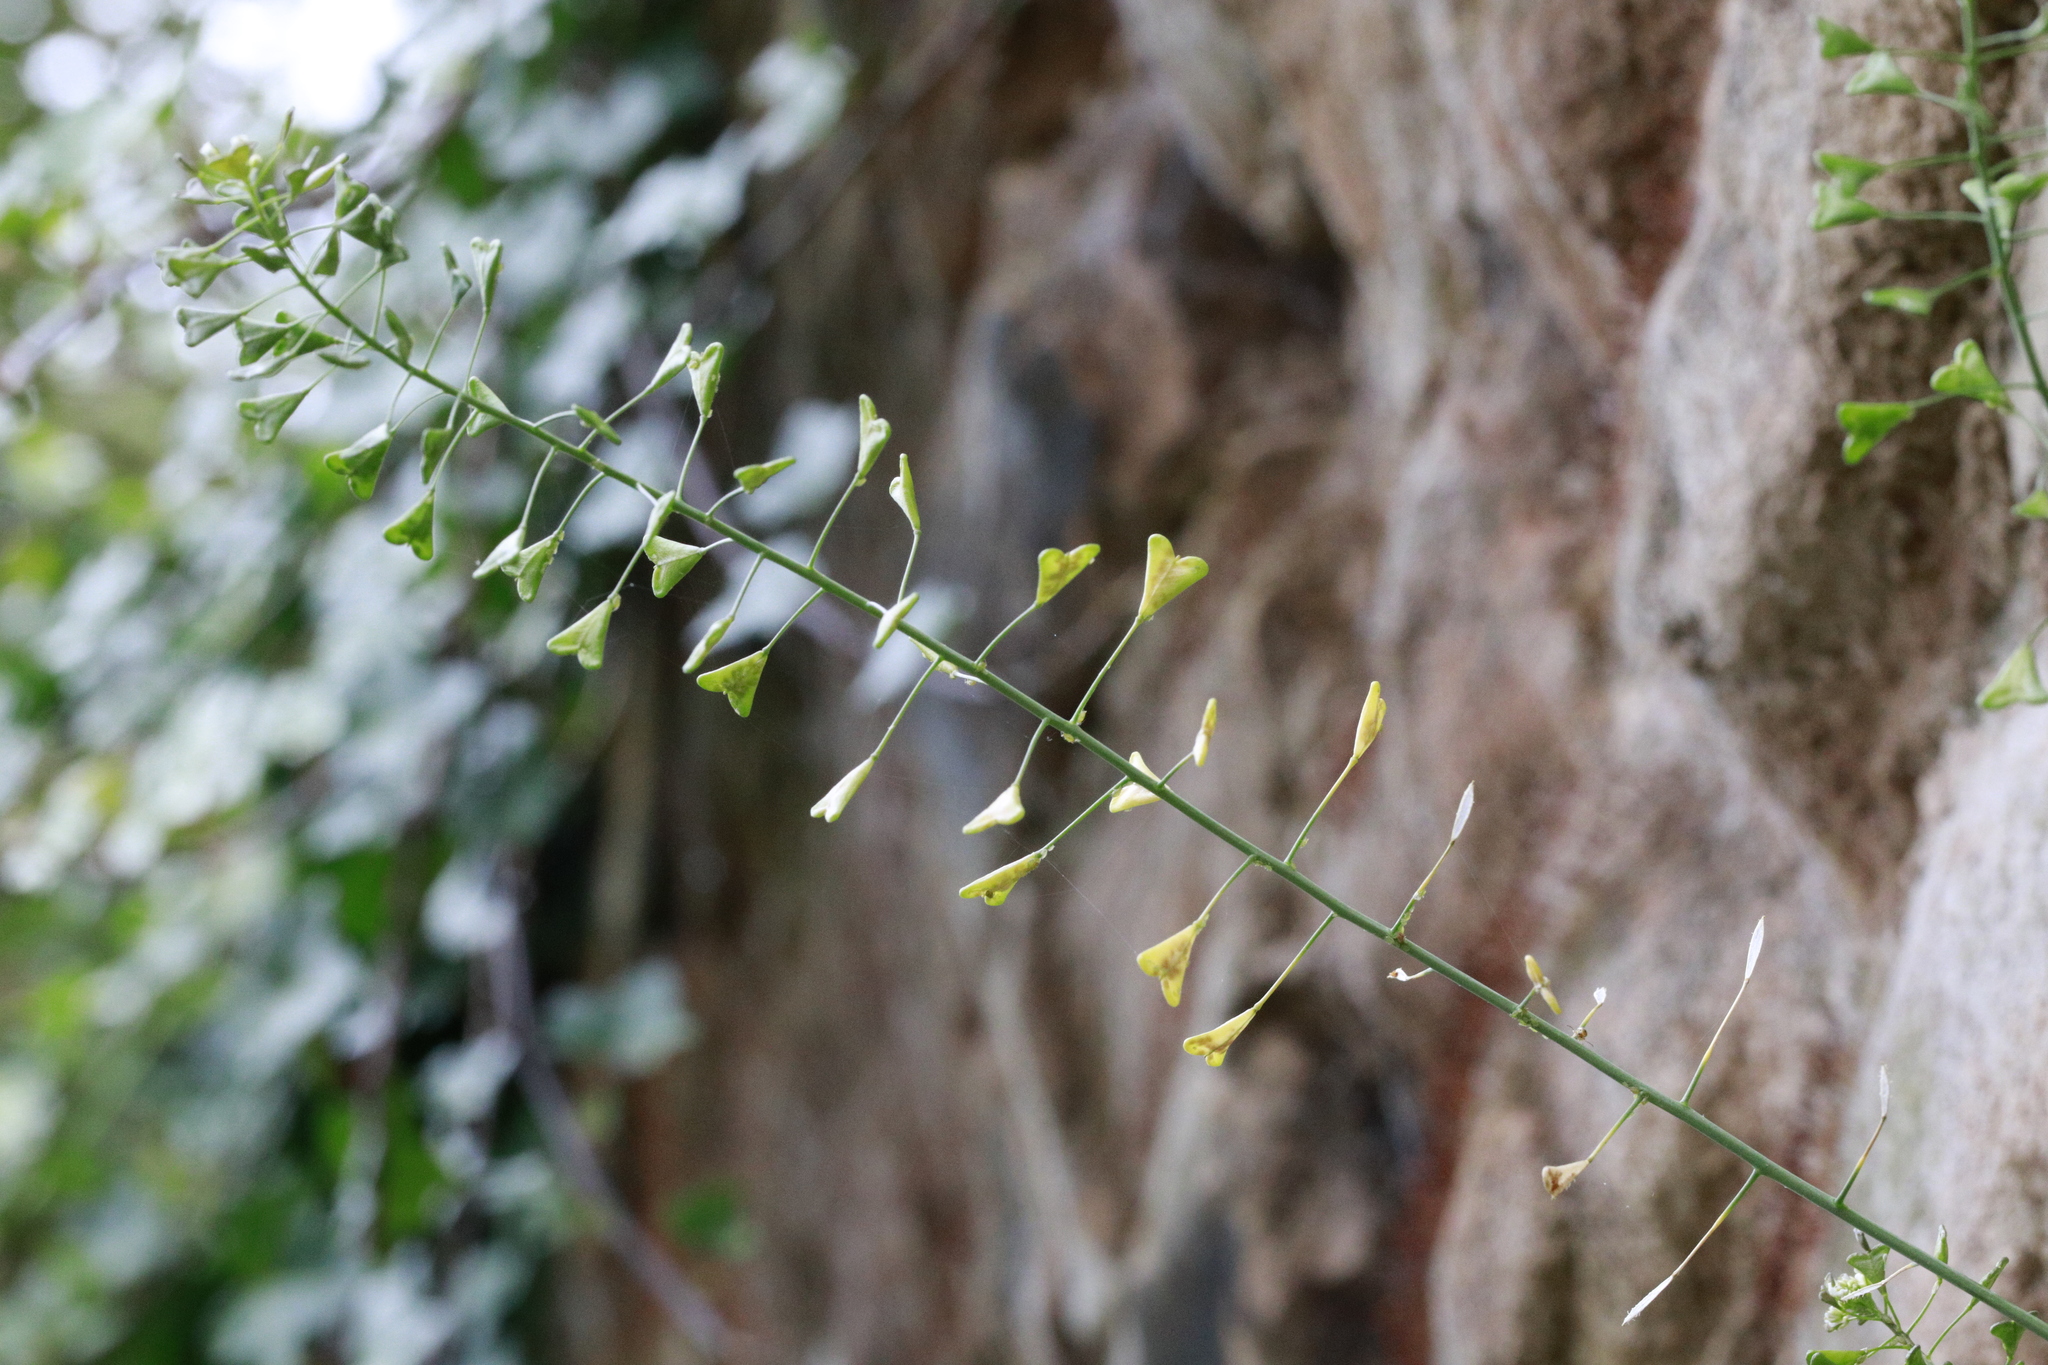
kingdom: Plantae
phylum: Tracheophyta
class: Magnoliopsida
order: Brassicales
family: Brassicaceae
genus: Capsella
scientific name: Capsella bursa-pastoris
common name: Shepherd's purse
